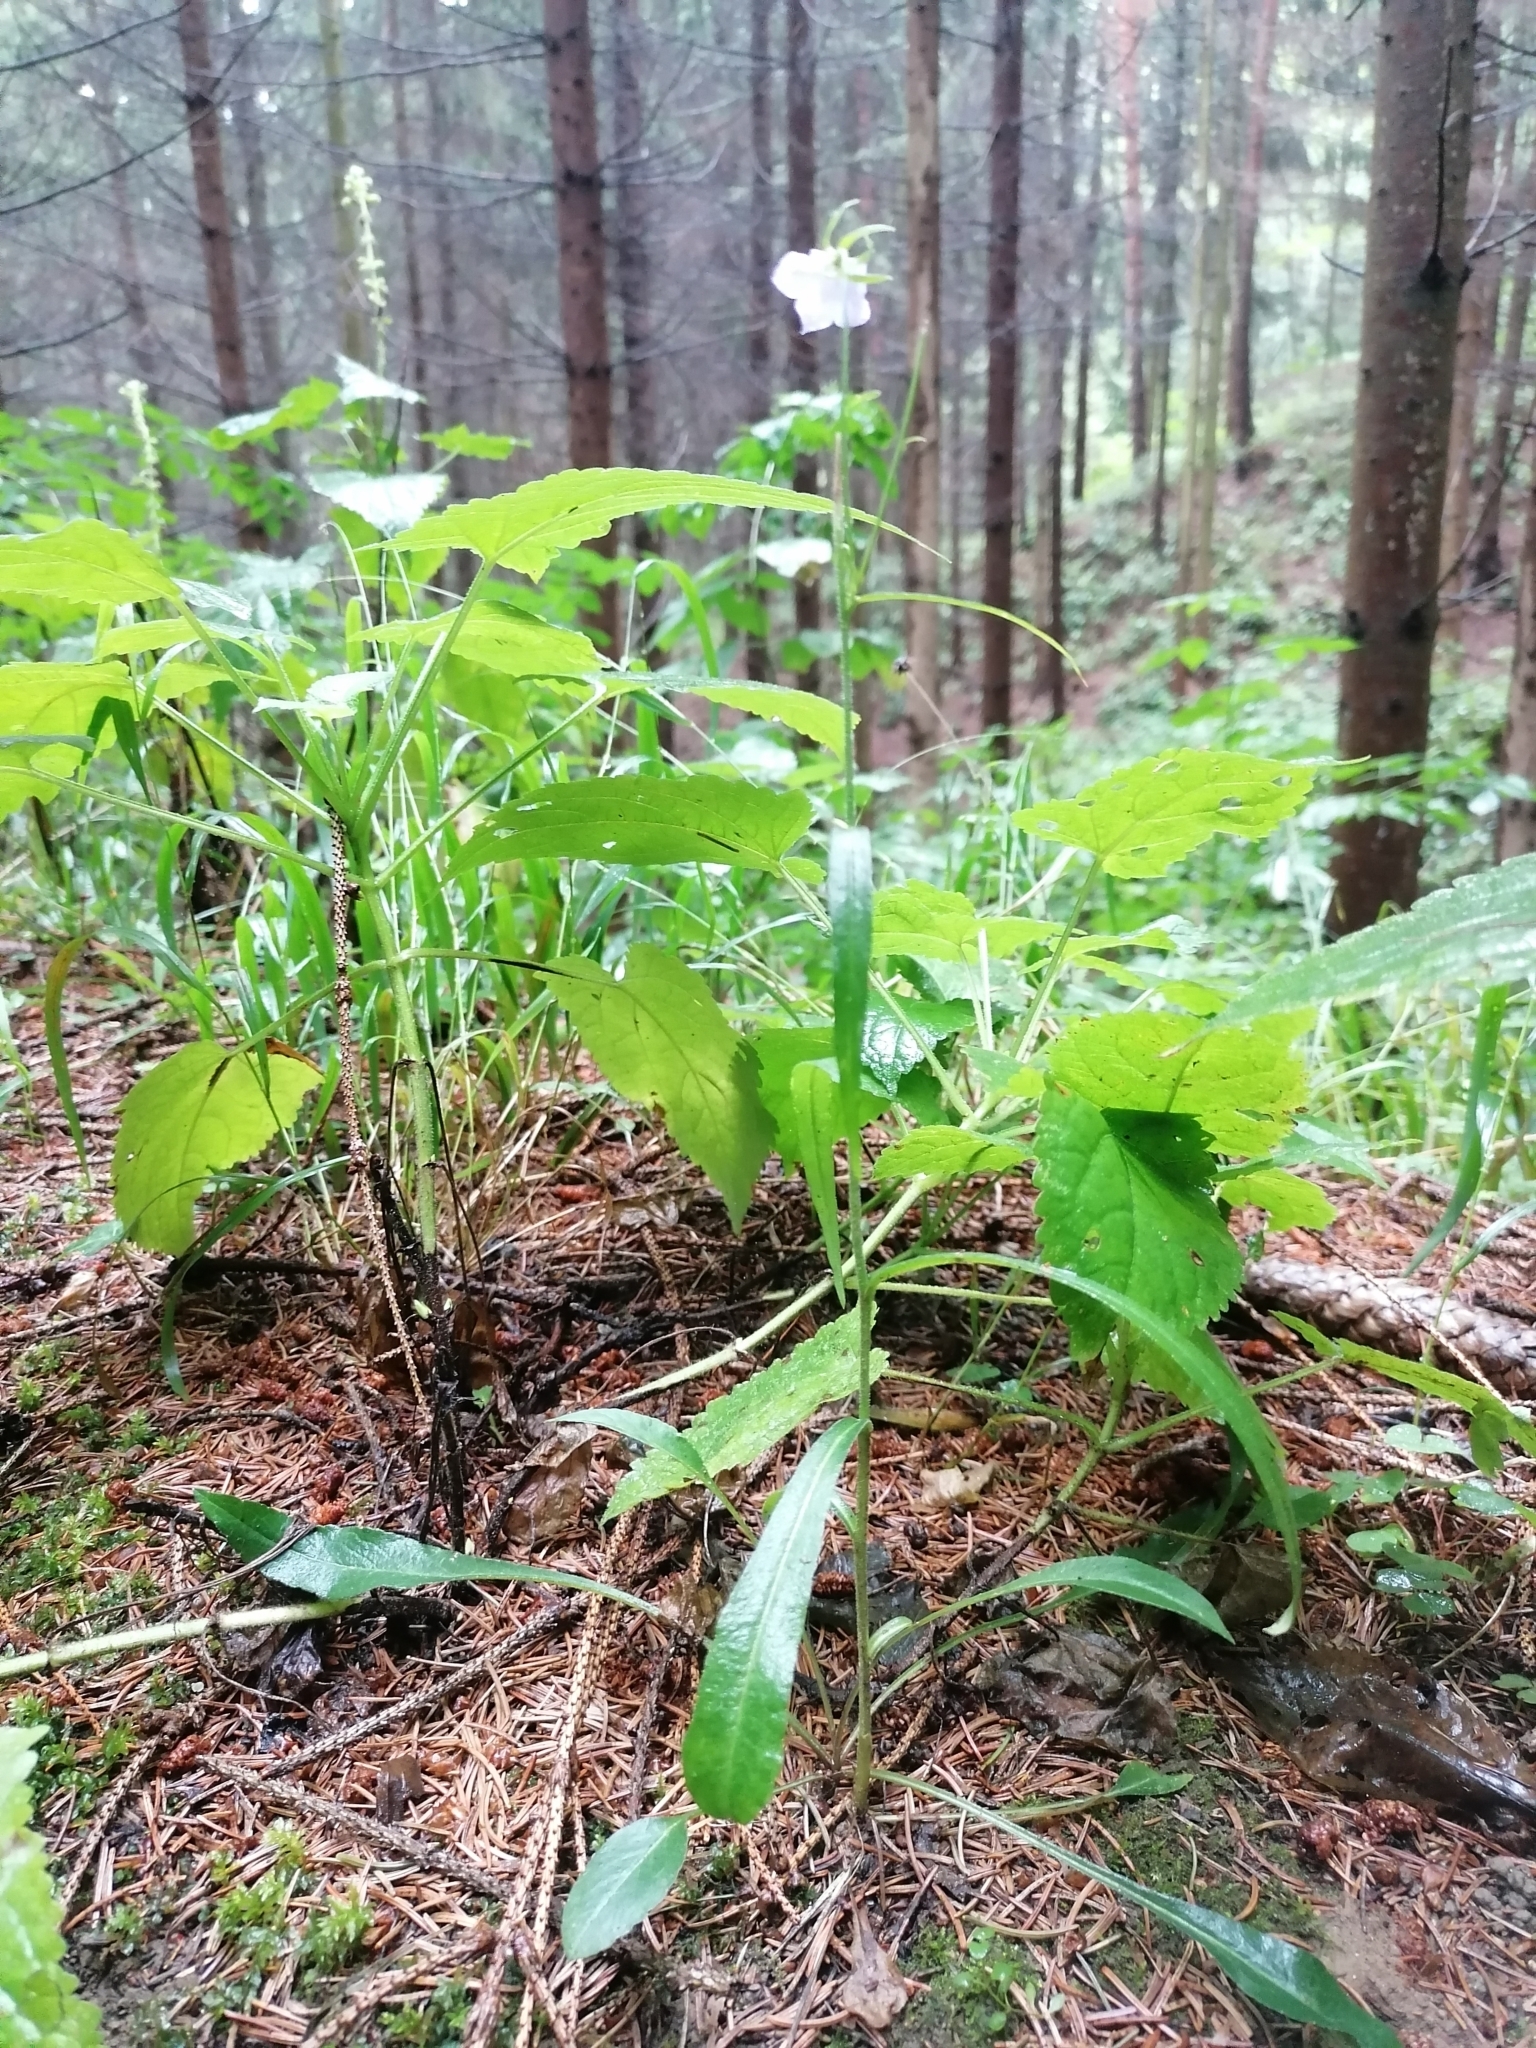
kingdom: Plantae
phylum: Tracheophyta
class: Magnoliopsida
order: Asterales
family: Campanulaceae
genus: Campanula
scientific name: Campanula persicifolia
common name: Peach-leaved bellflower
